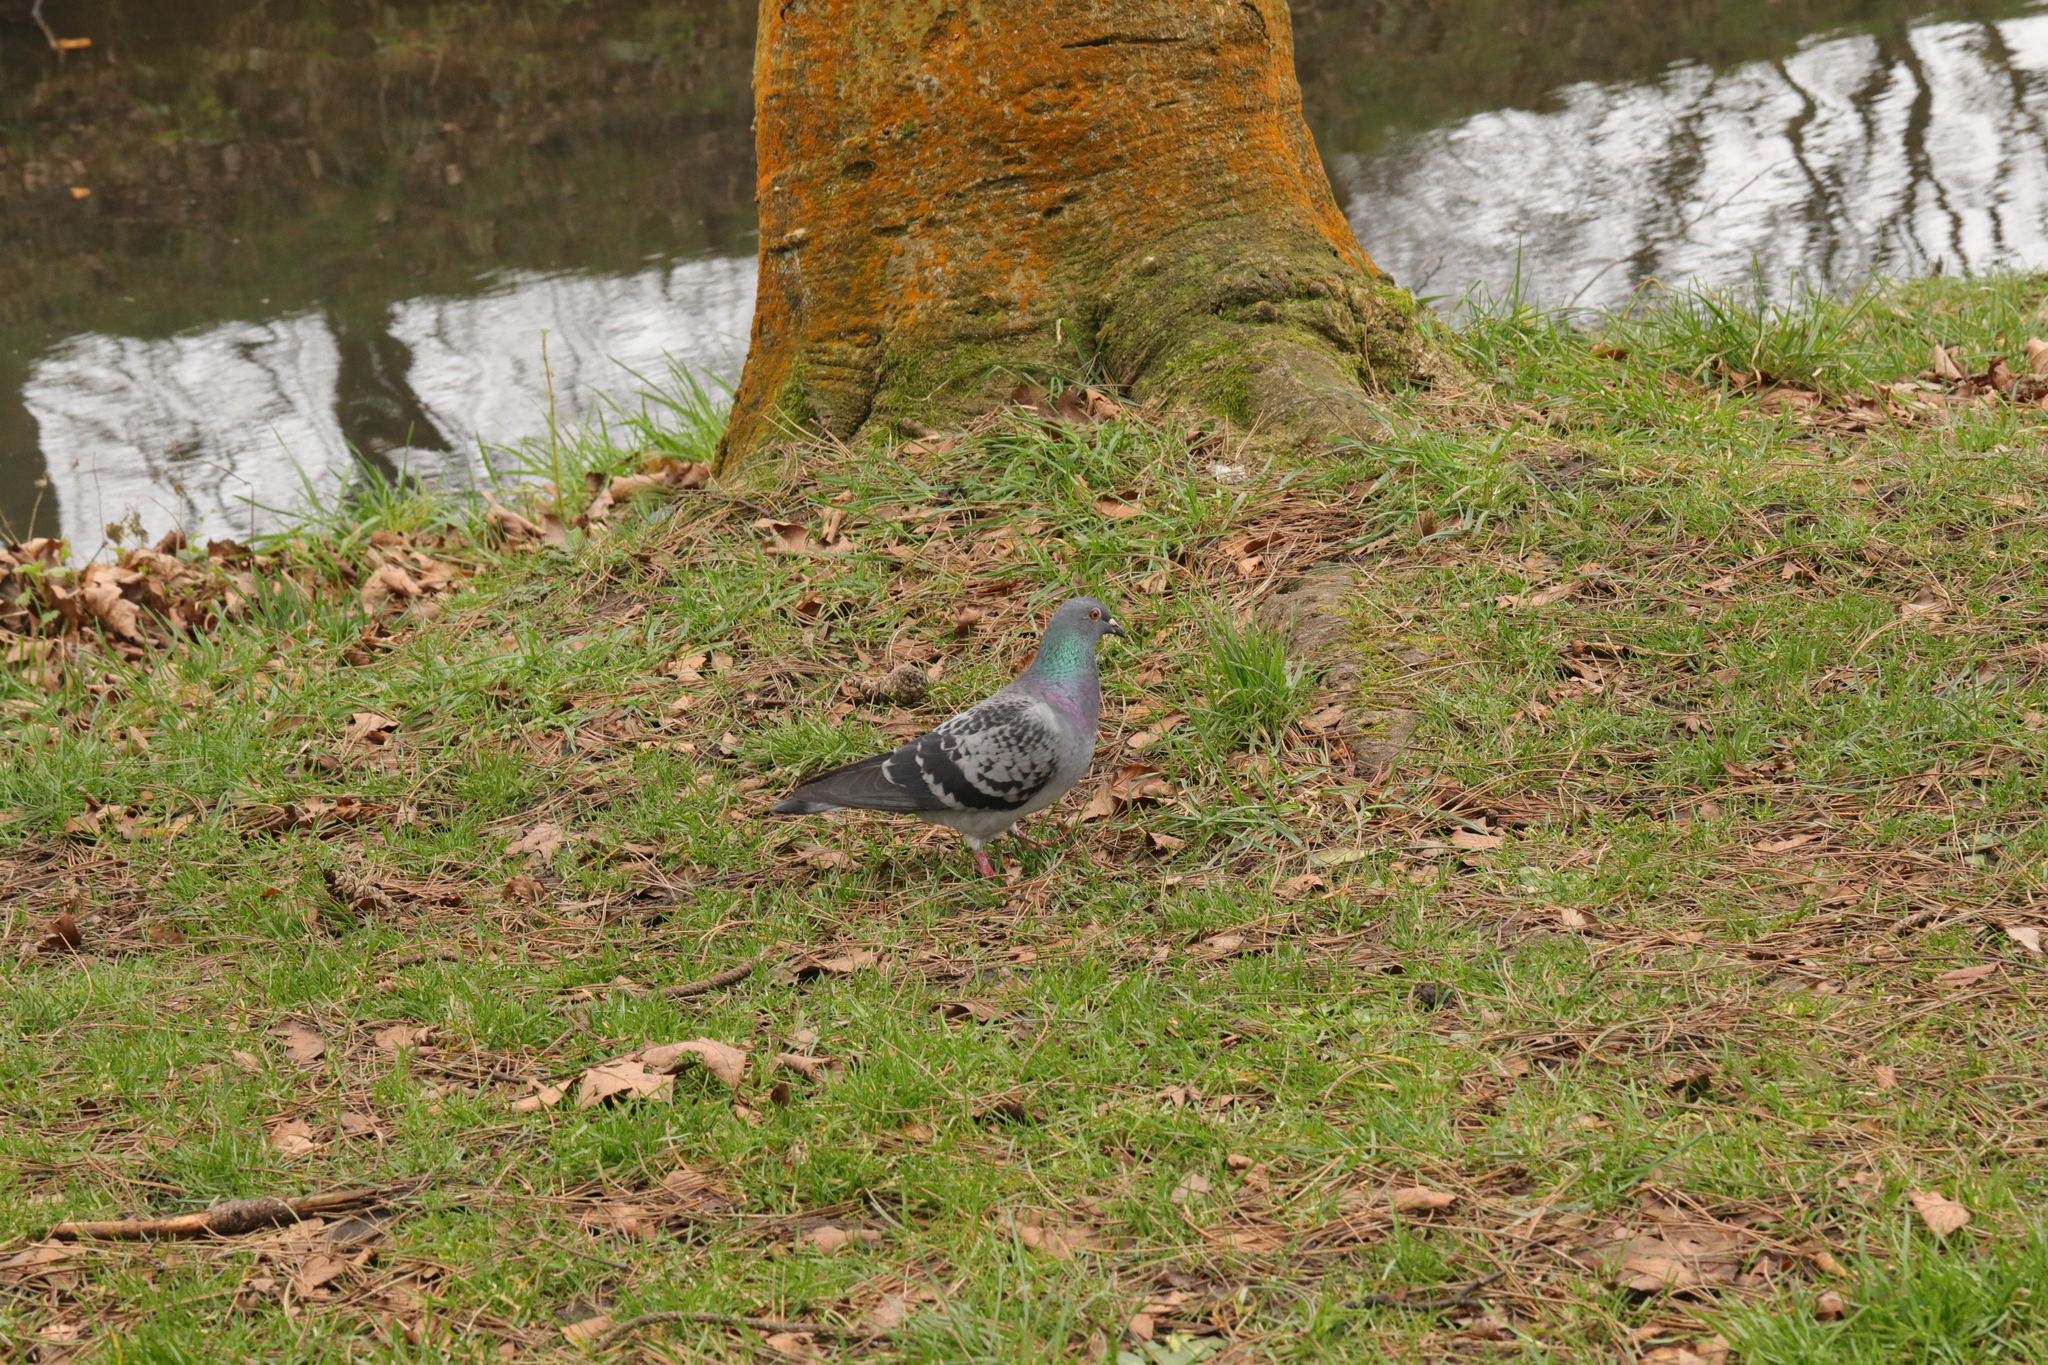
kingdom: Animalia
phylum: Chordata
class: Aves
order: Columbiformes
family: Columbidae
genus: Columba
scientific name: Columba livia
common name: Rock pigeon
